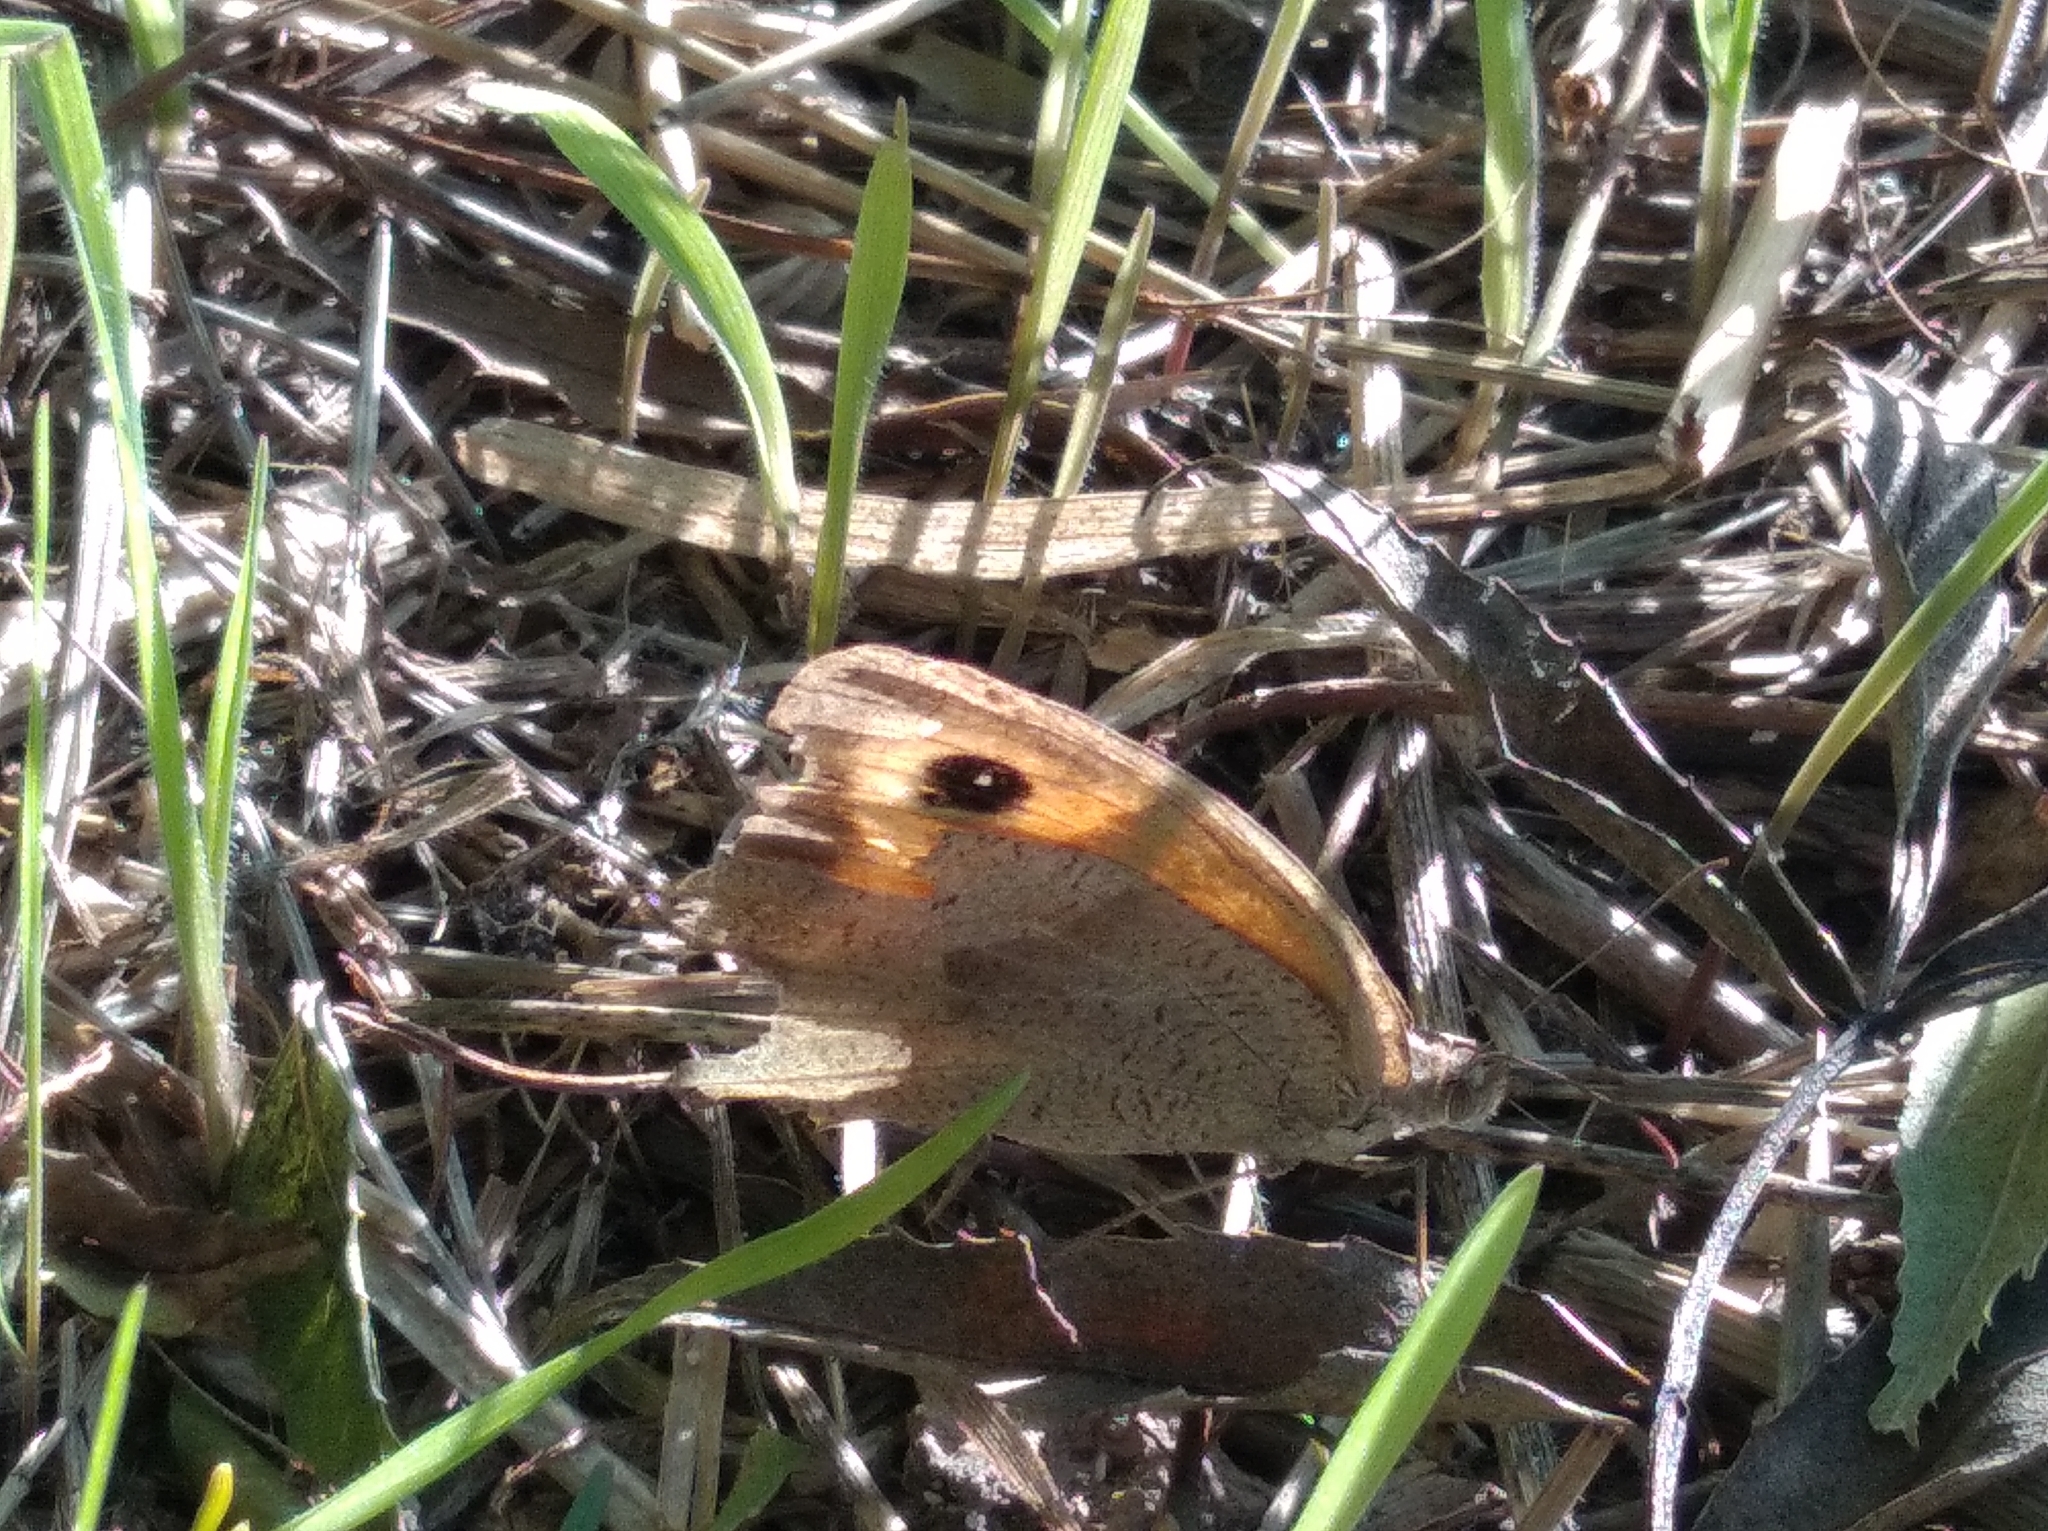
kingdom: Animalia
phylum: Arthropoda
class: Insecta
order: Lepidoptera
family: Nymphalidae
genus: Maniola
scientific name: Maniola jurtina
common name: Meadow brown
